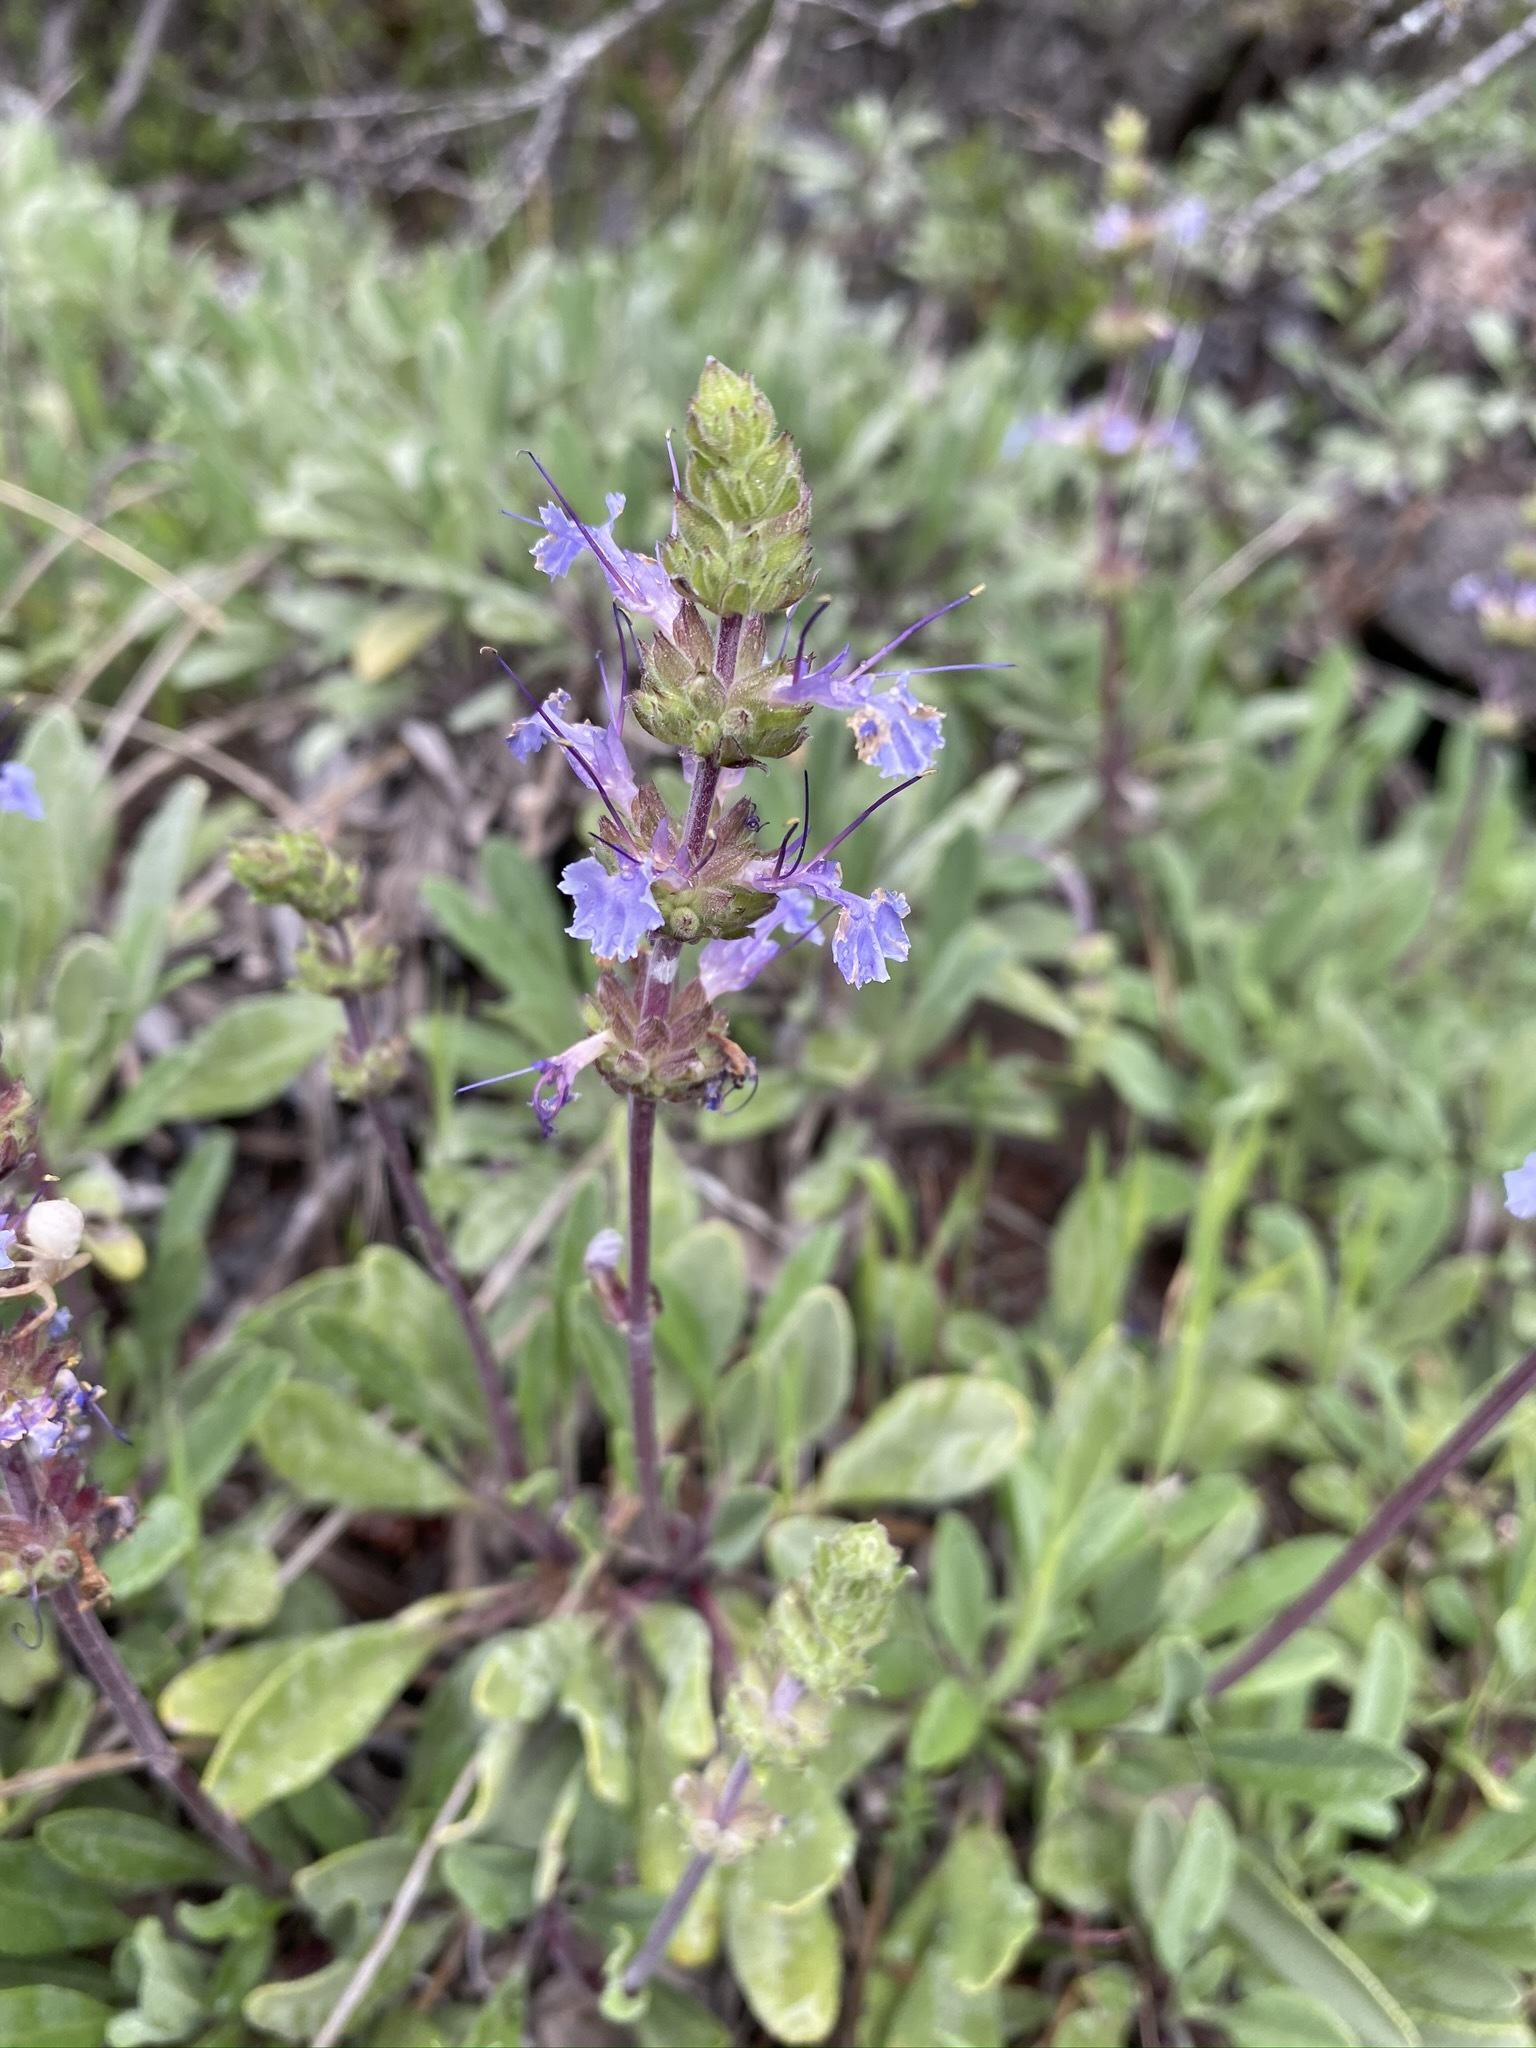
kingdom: Plantae
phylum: Tracheophyta
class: Magnoliopsida
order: Lamiales
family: Lamiaceae
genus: Salvia
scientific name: Salvia sonomensis
